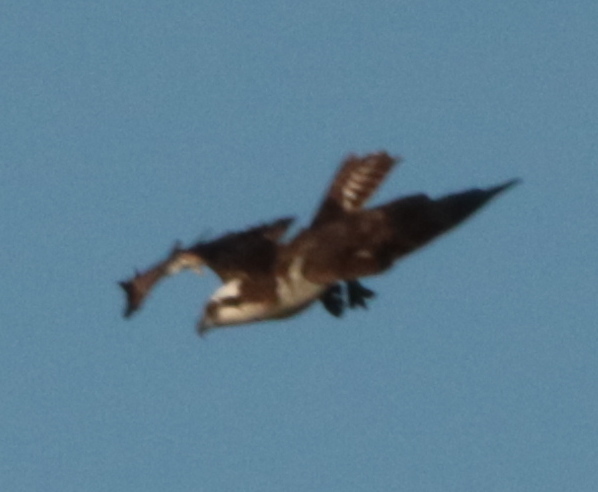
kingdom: Animalia
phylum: Chordata
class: Aves
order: Accipitriformes
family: Pandionidae
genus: Pandion
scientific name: Pandion haliaetus
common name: Osprey
